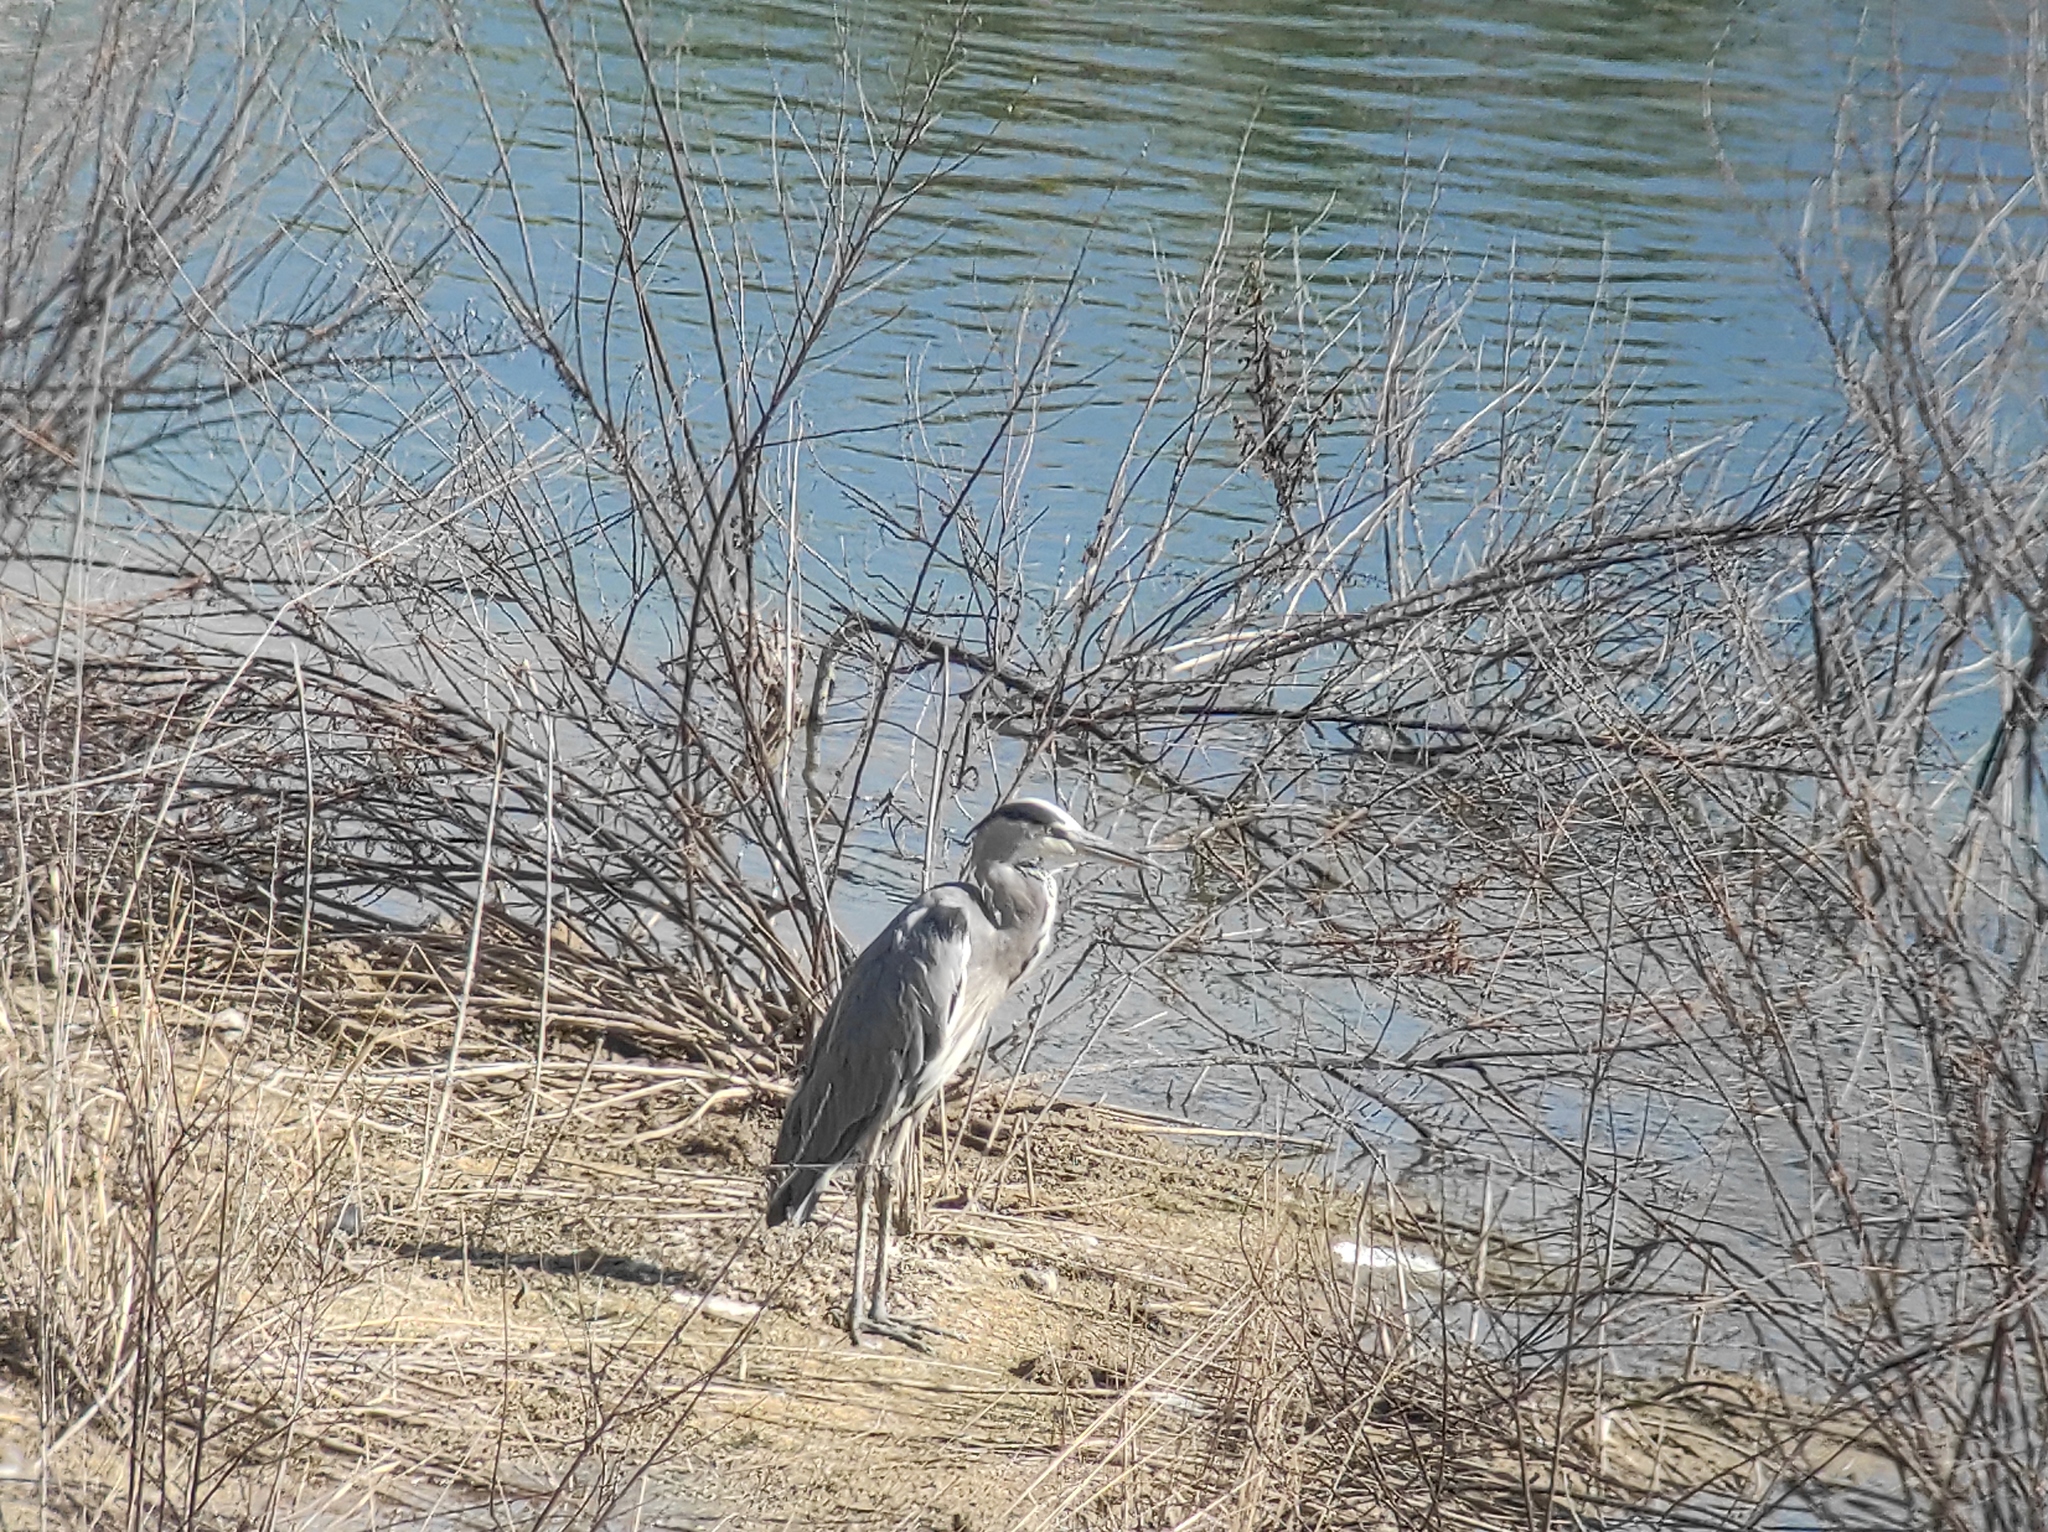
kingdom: Animalia
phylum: Chordata
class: Aves
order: Pelecaniformes
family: Ardeidae
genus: Ardea
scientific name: Ardea cinerea
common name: Grey heron
